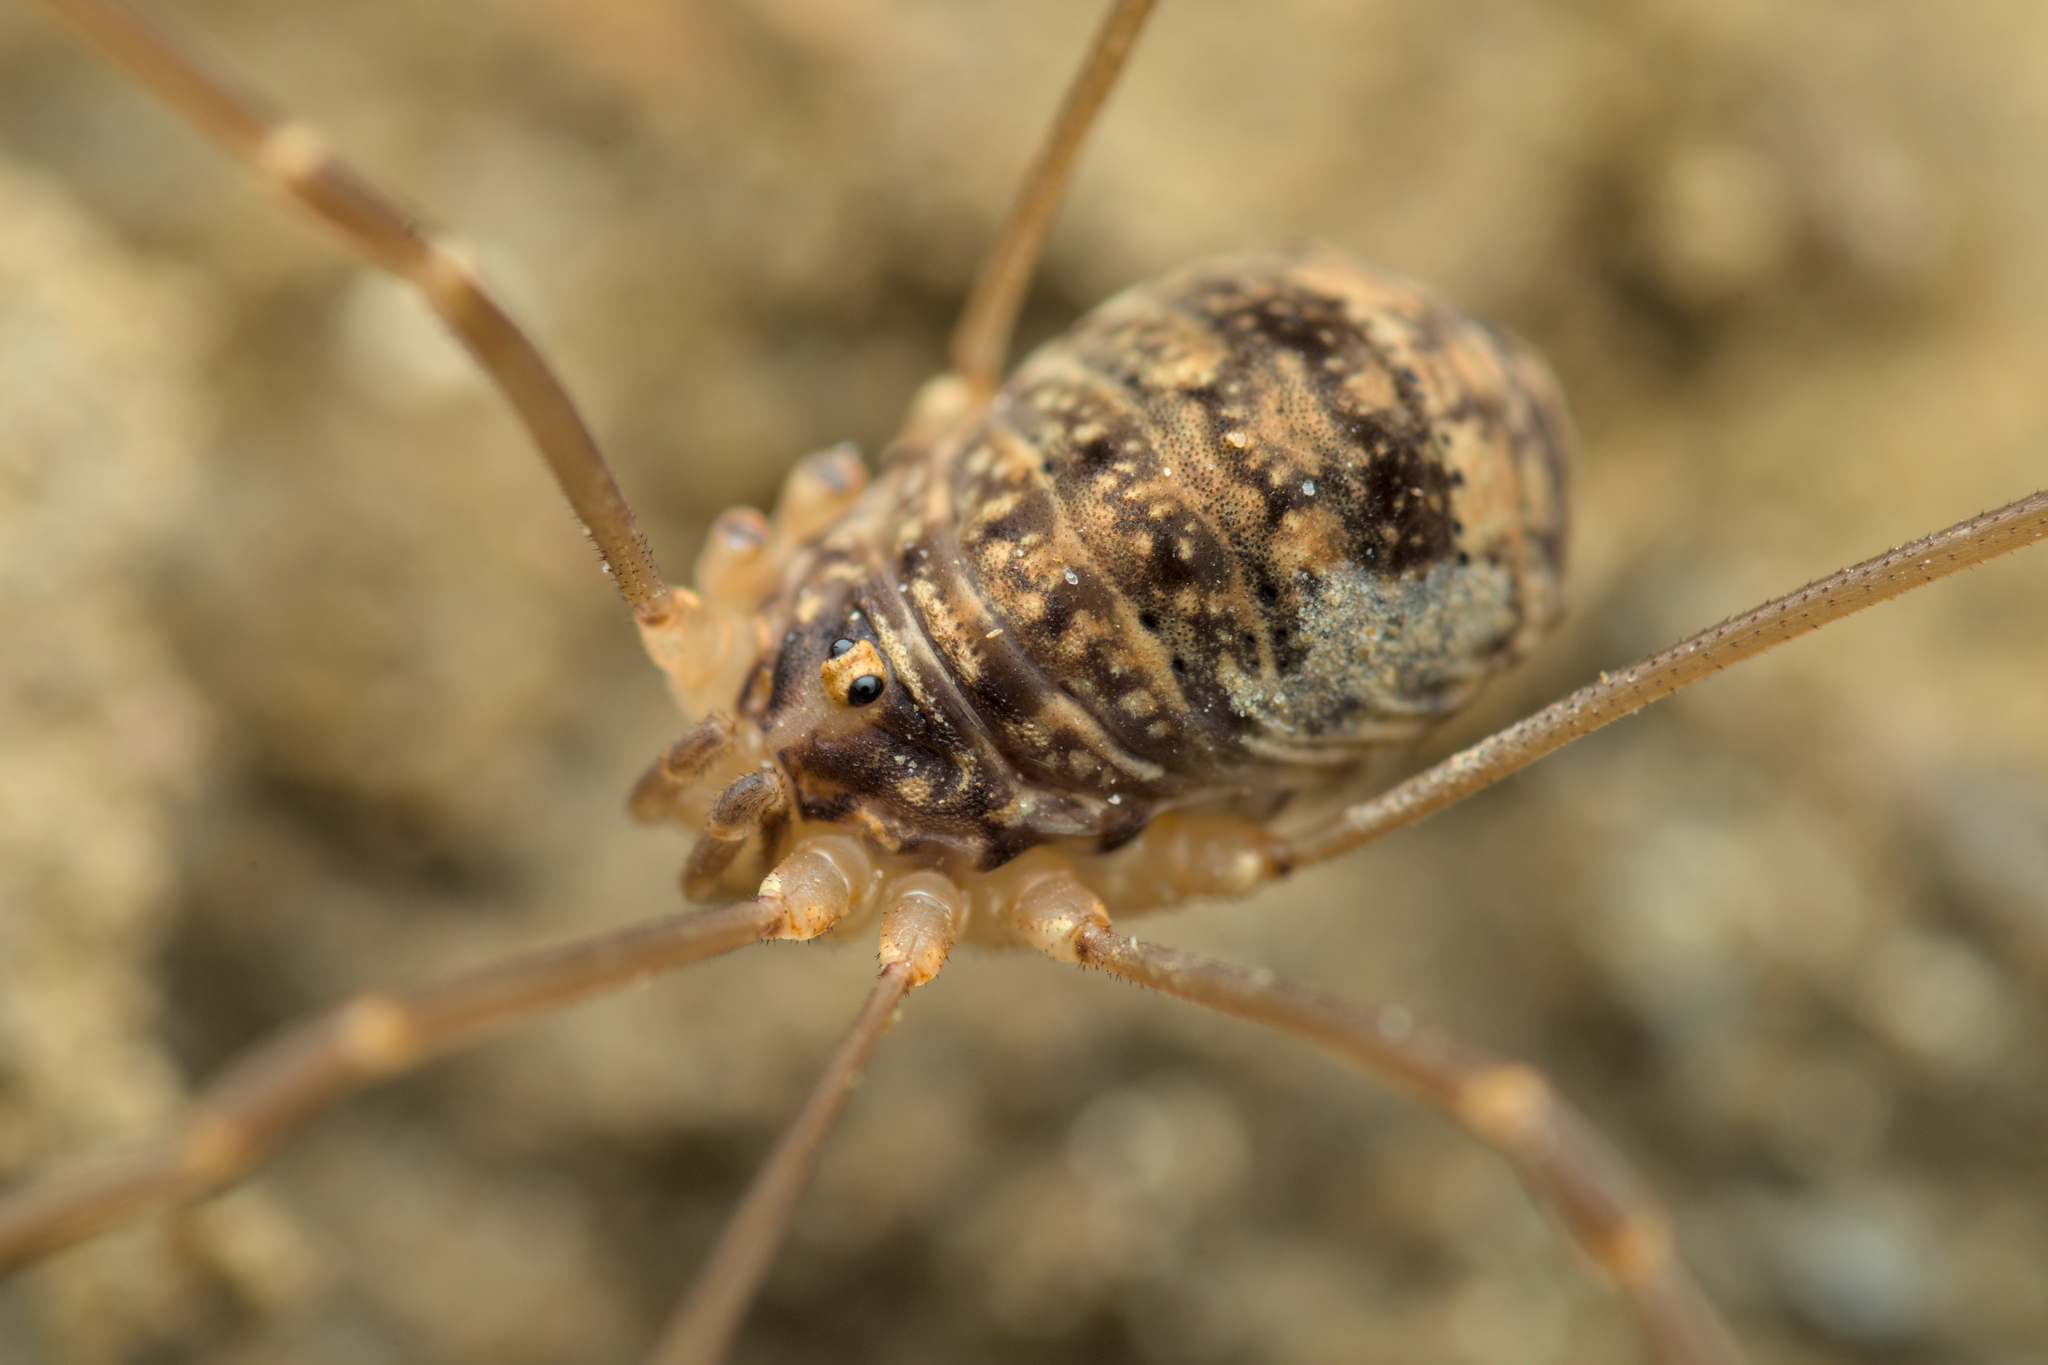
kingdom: Animalia
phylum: Arthropoda
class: Arachnida
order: Opiliones
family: Sclerosomatidae
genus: Nelima
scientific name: Nelima silvatica
